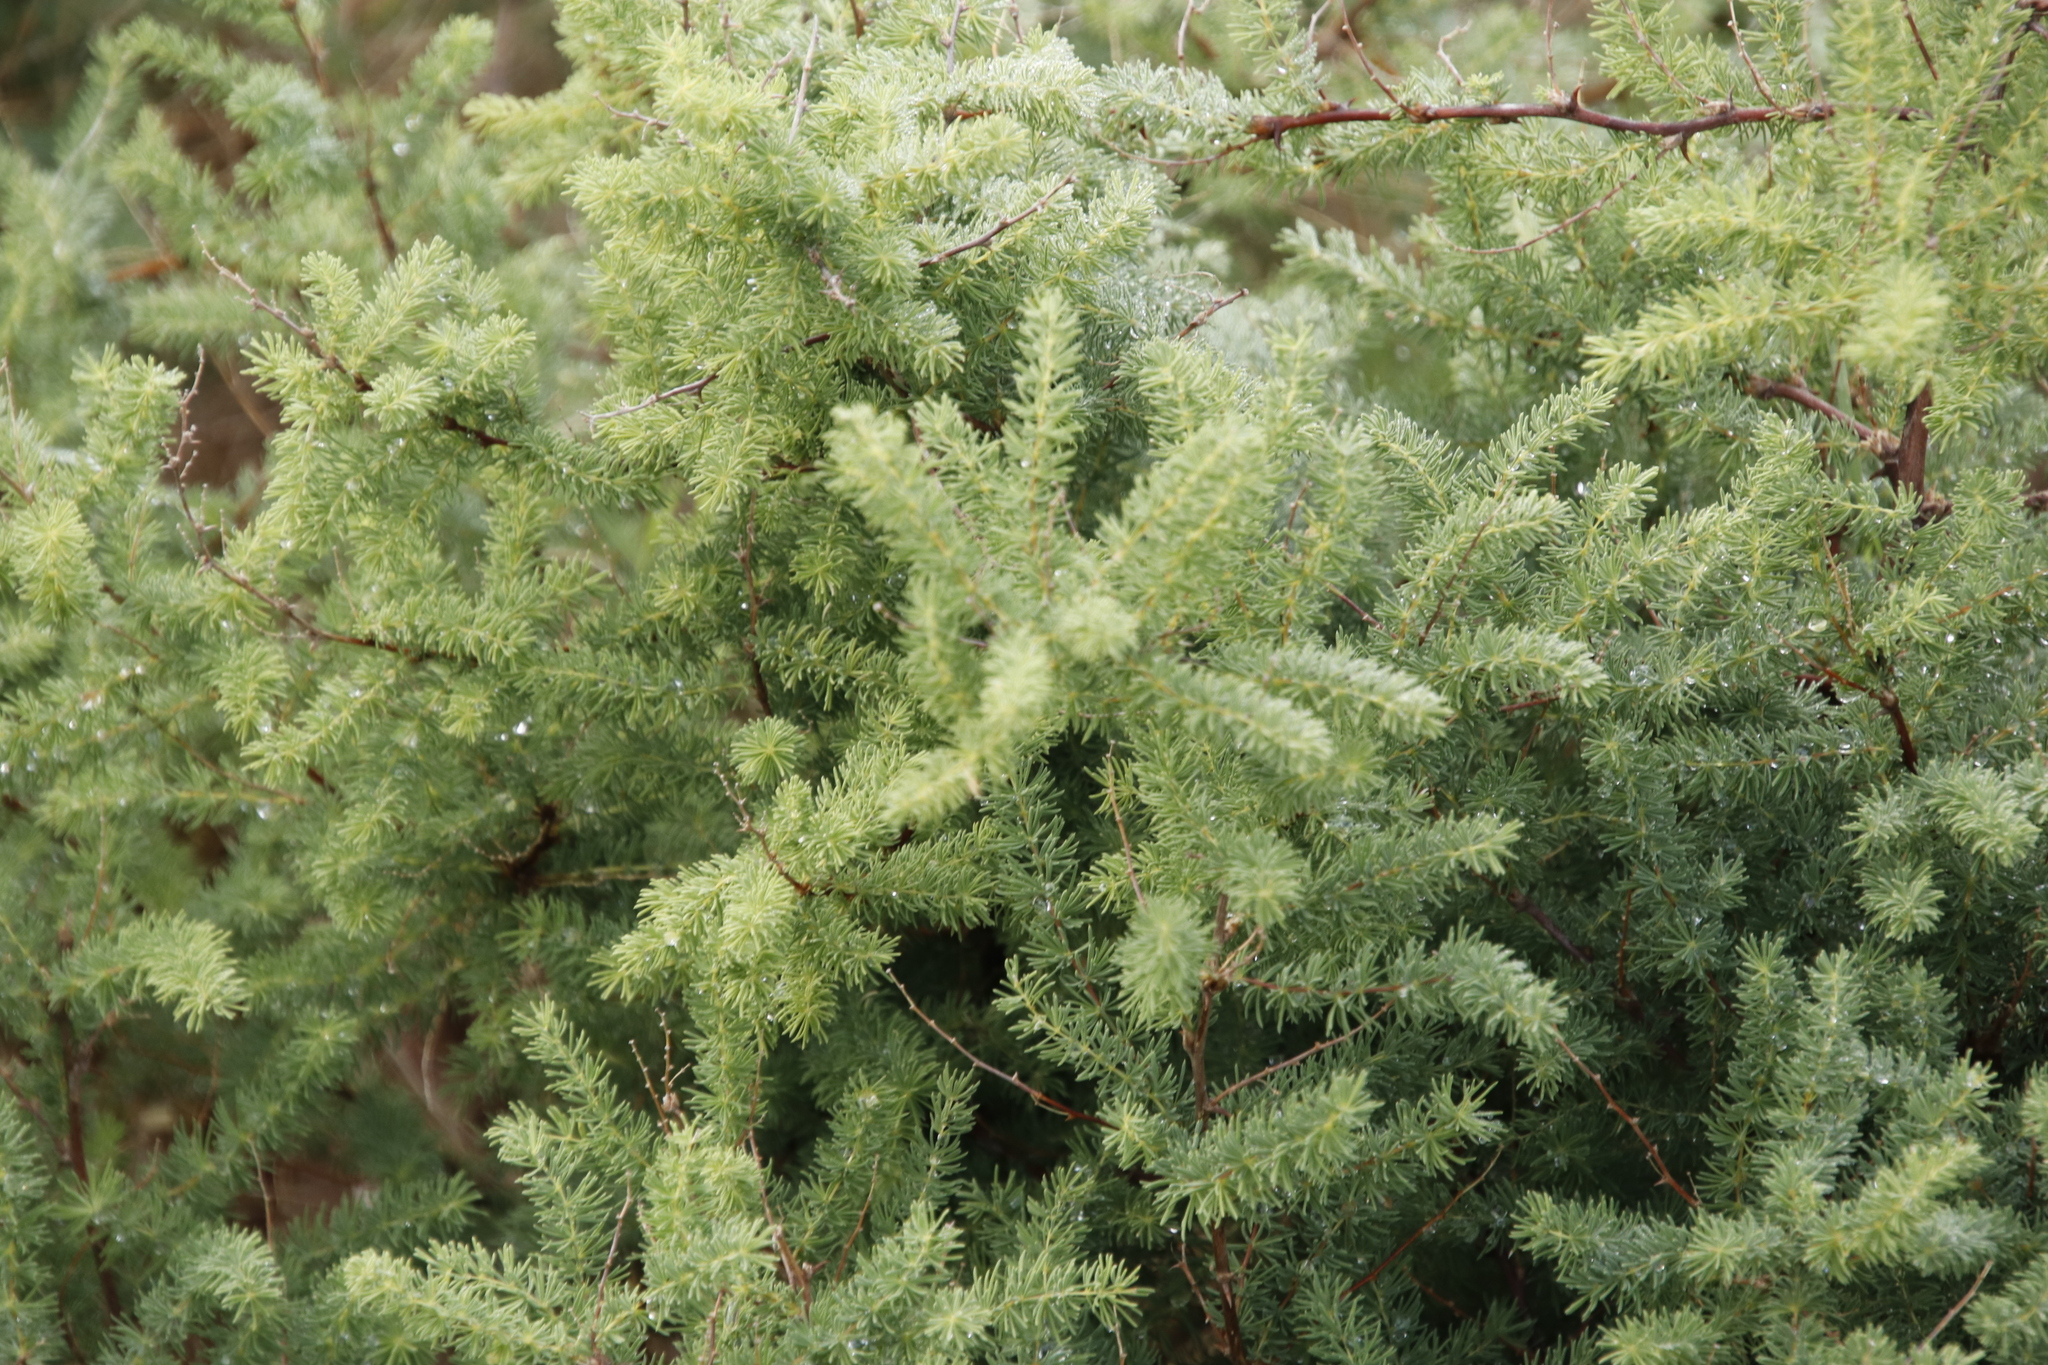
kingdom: Plantae
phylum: Tracheophyta
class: Liliopsida
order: Asparagales
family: Asparagaceae
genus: Asparagus
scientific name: Asparagus rubicundus
